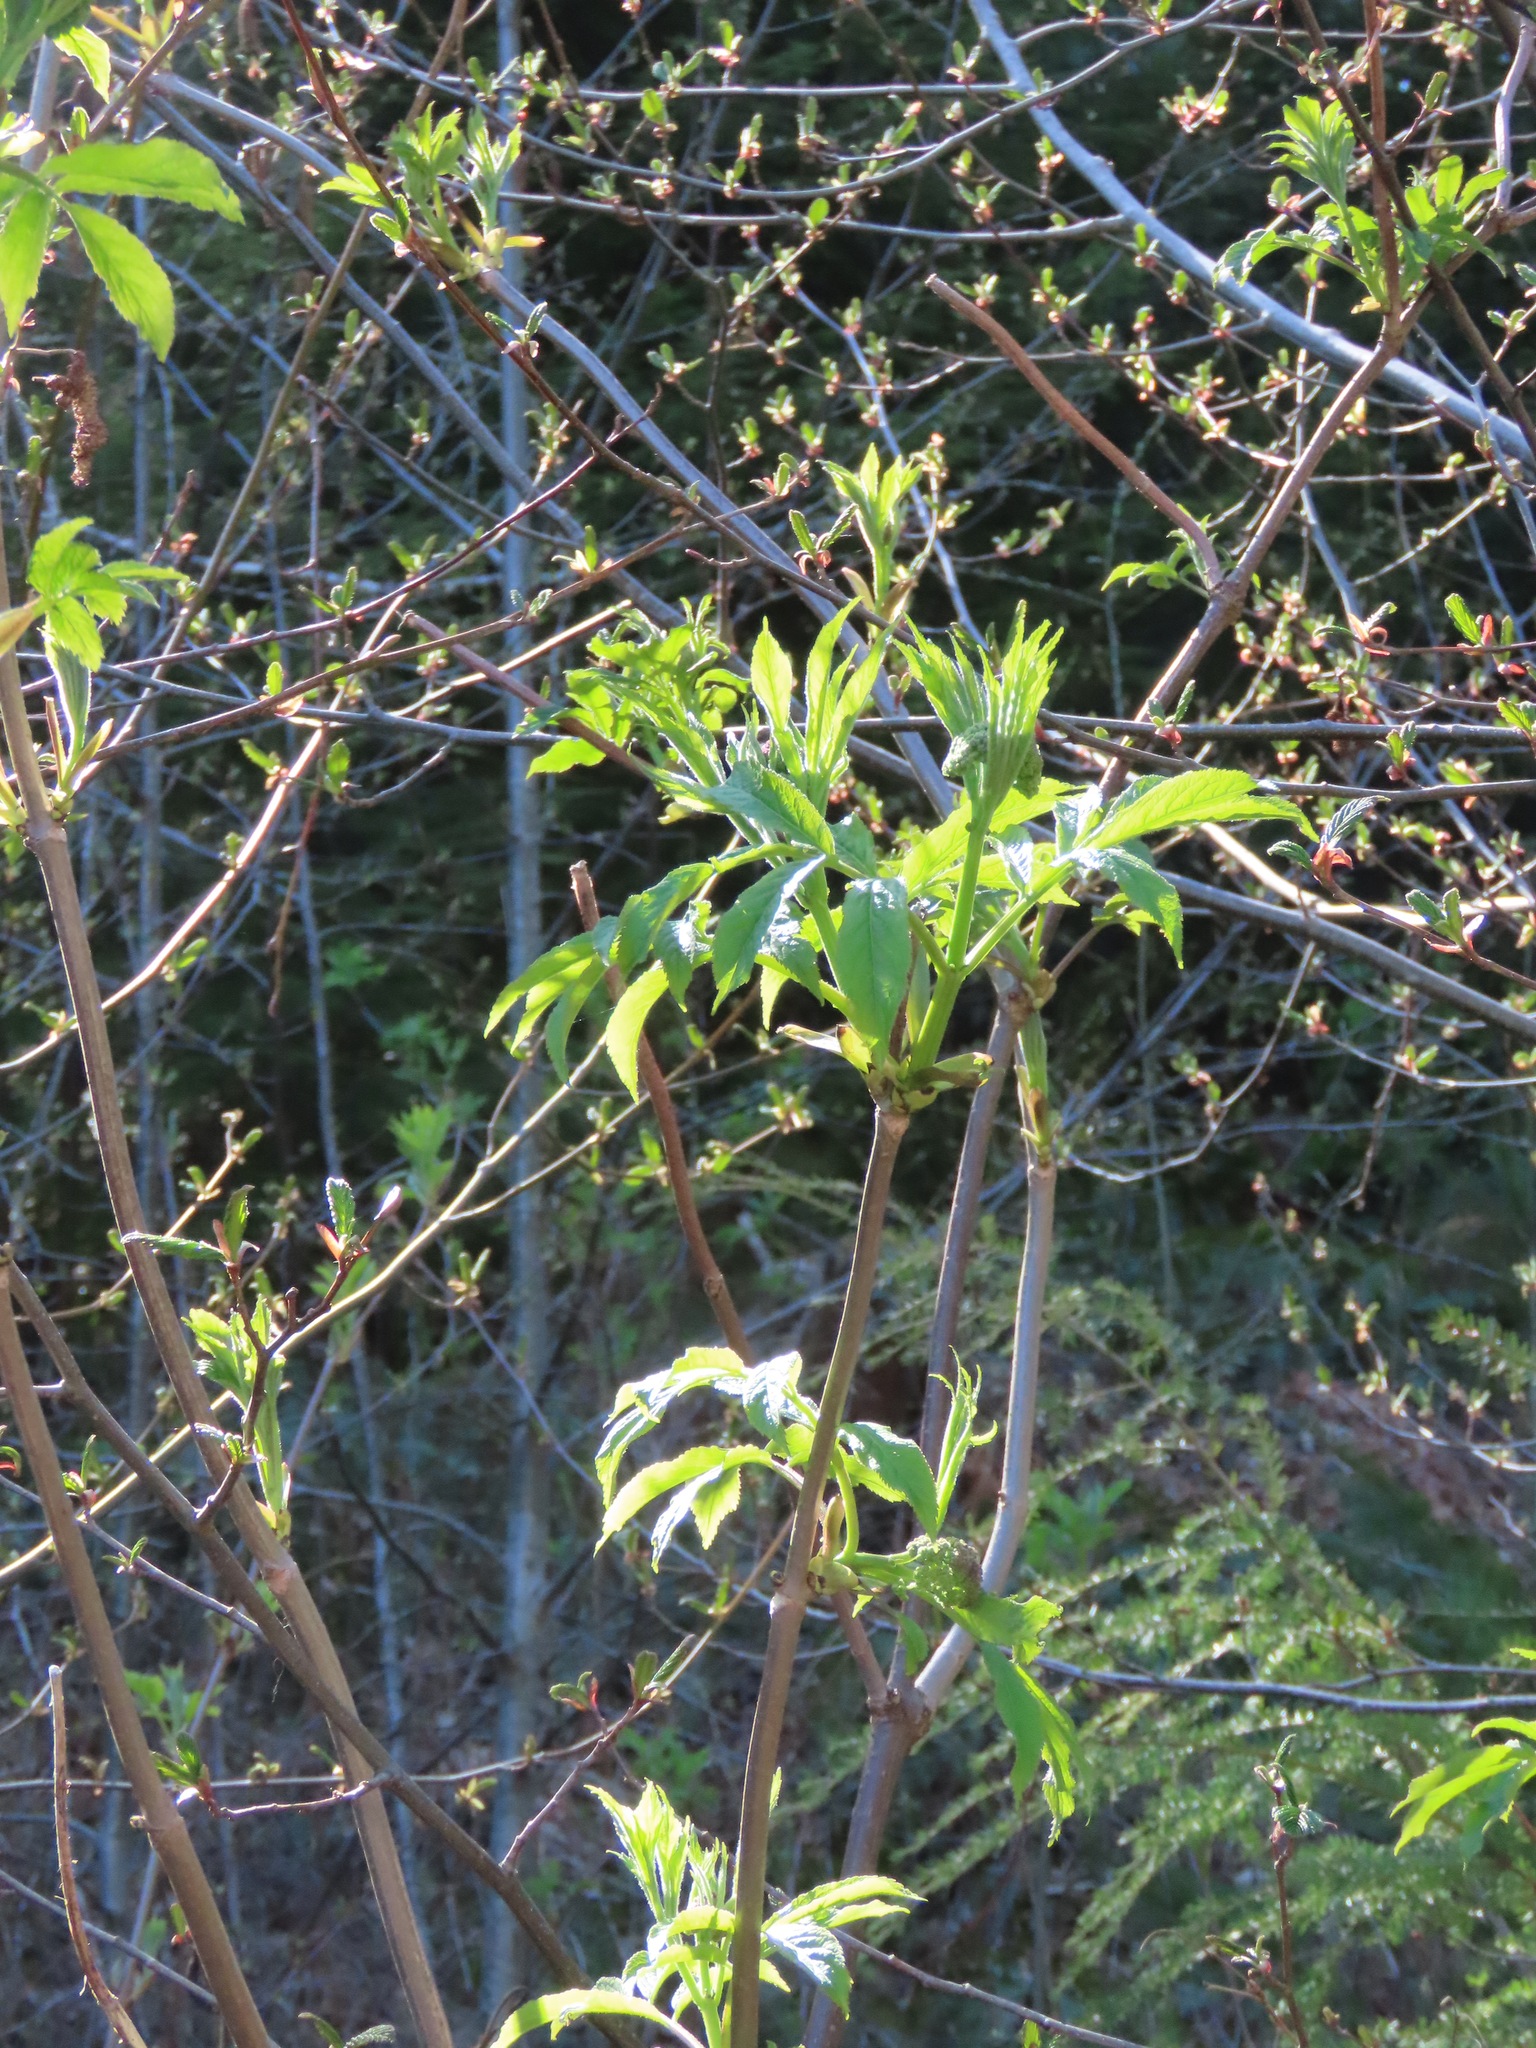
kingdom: Plantae
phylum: Tracheophyta
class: Magnoliopsida
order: Dipsacales
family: Viburnaceae
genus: Sambucus
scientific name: Sambucus racemosa
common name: Red-berried elder
